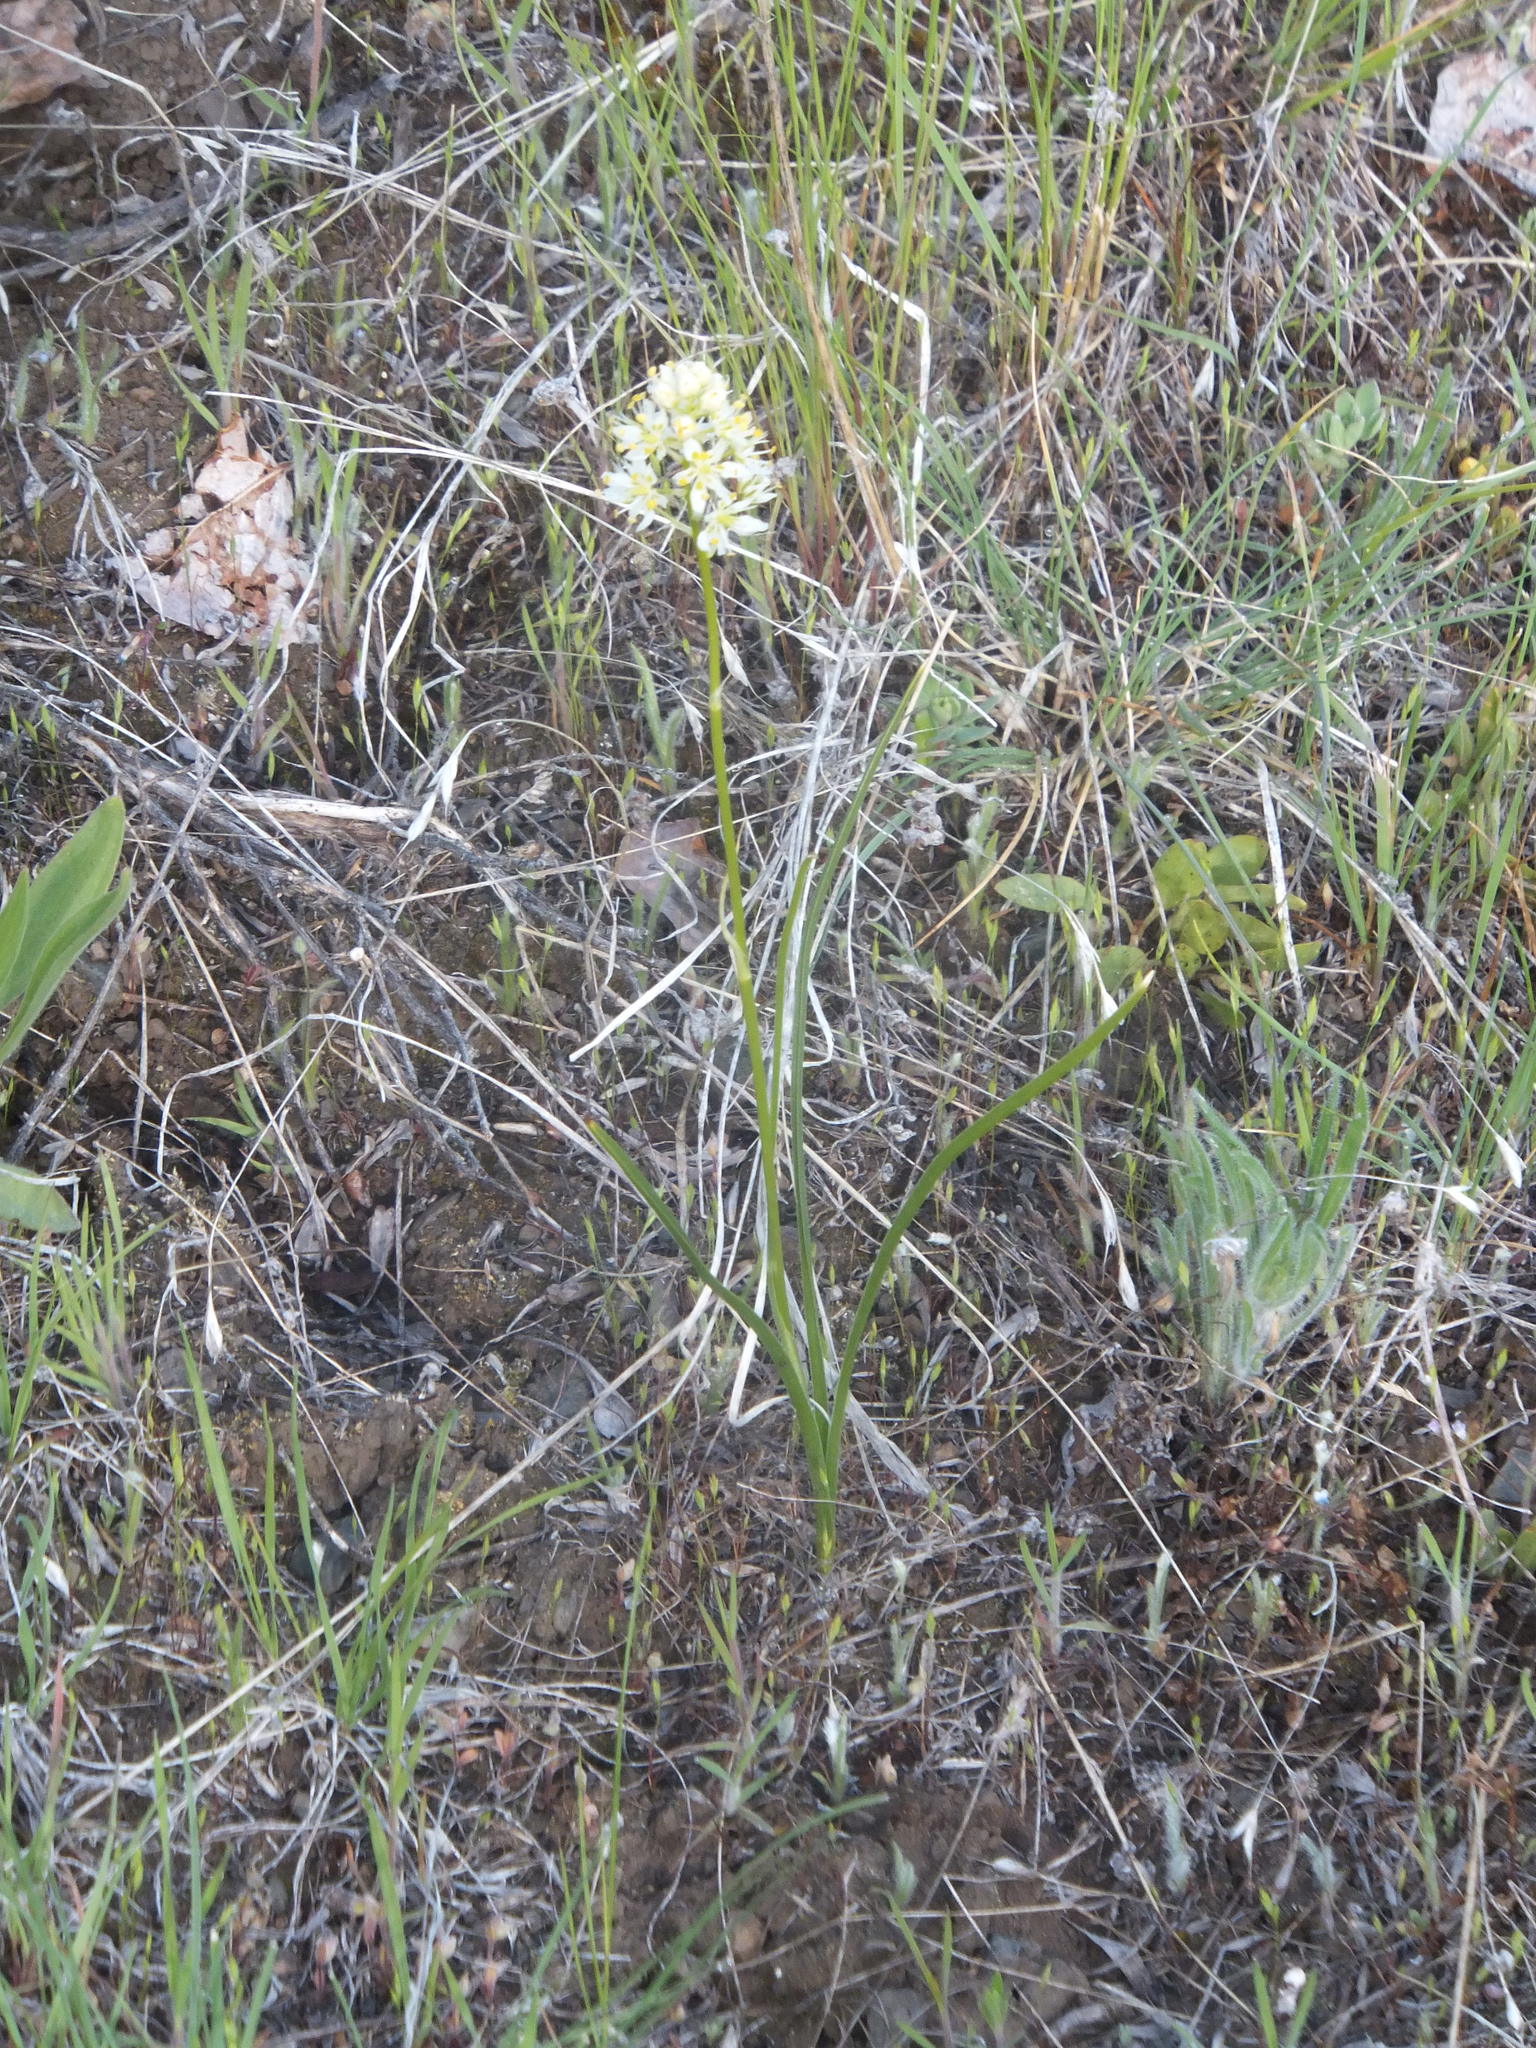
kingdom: Plantae
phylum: Tracheophyta
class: Liliopsida
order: Liliales
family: Melanthiaceae
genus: Toxicoscordion
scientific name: Toxicoscordion venenosum
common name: Meadow death camas
